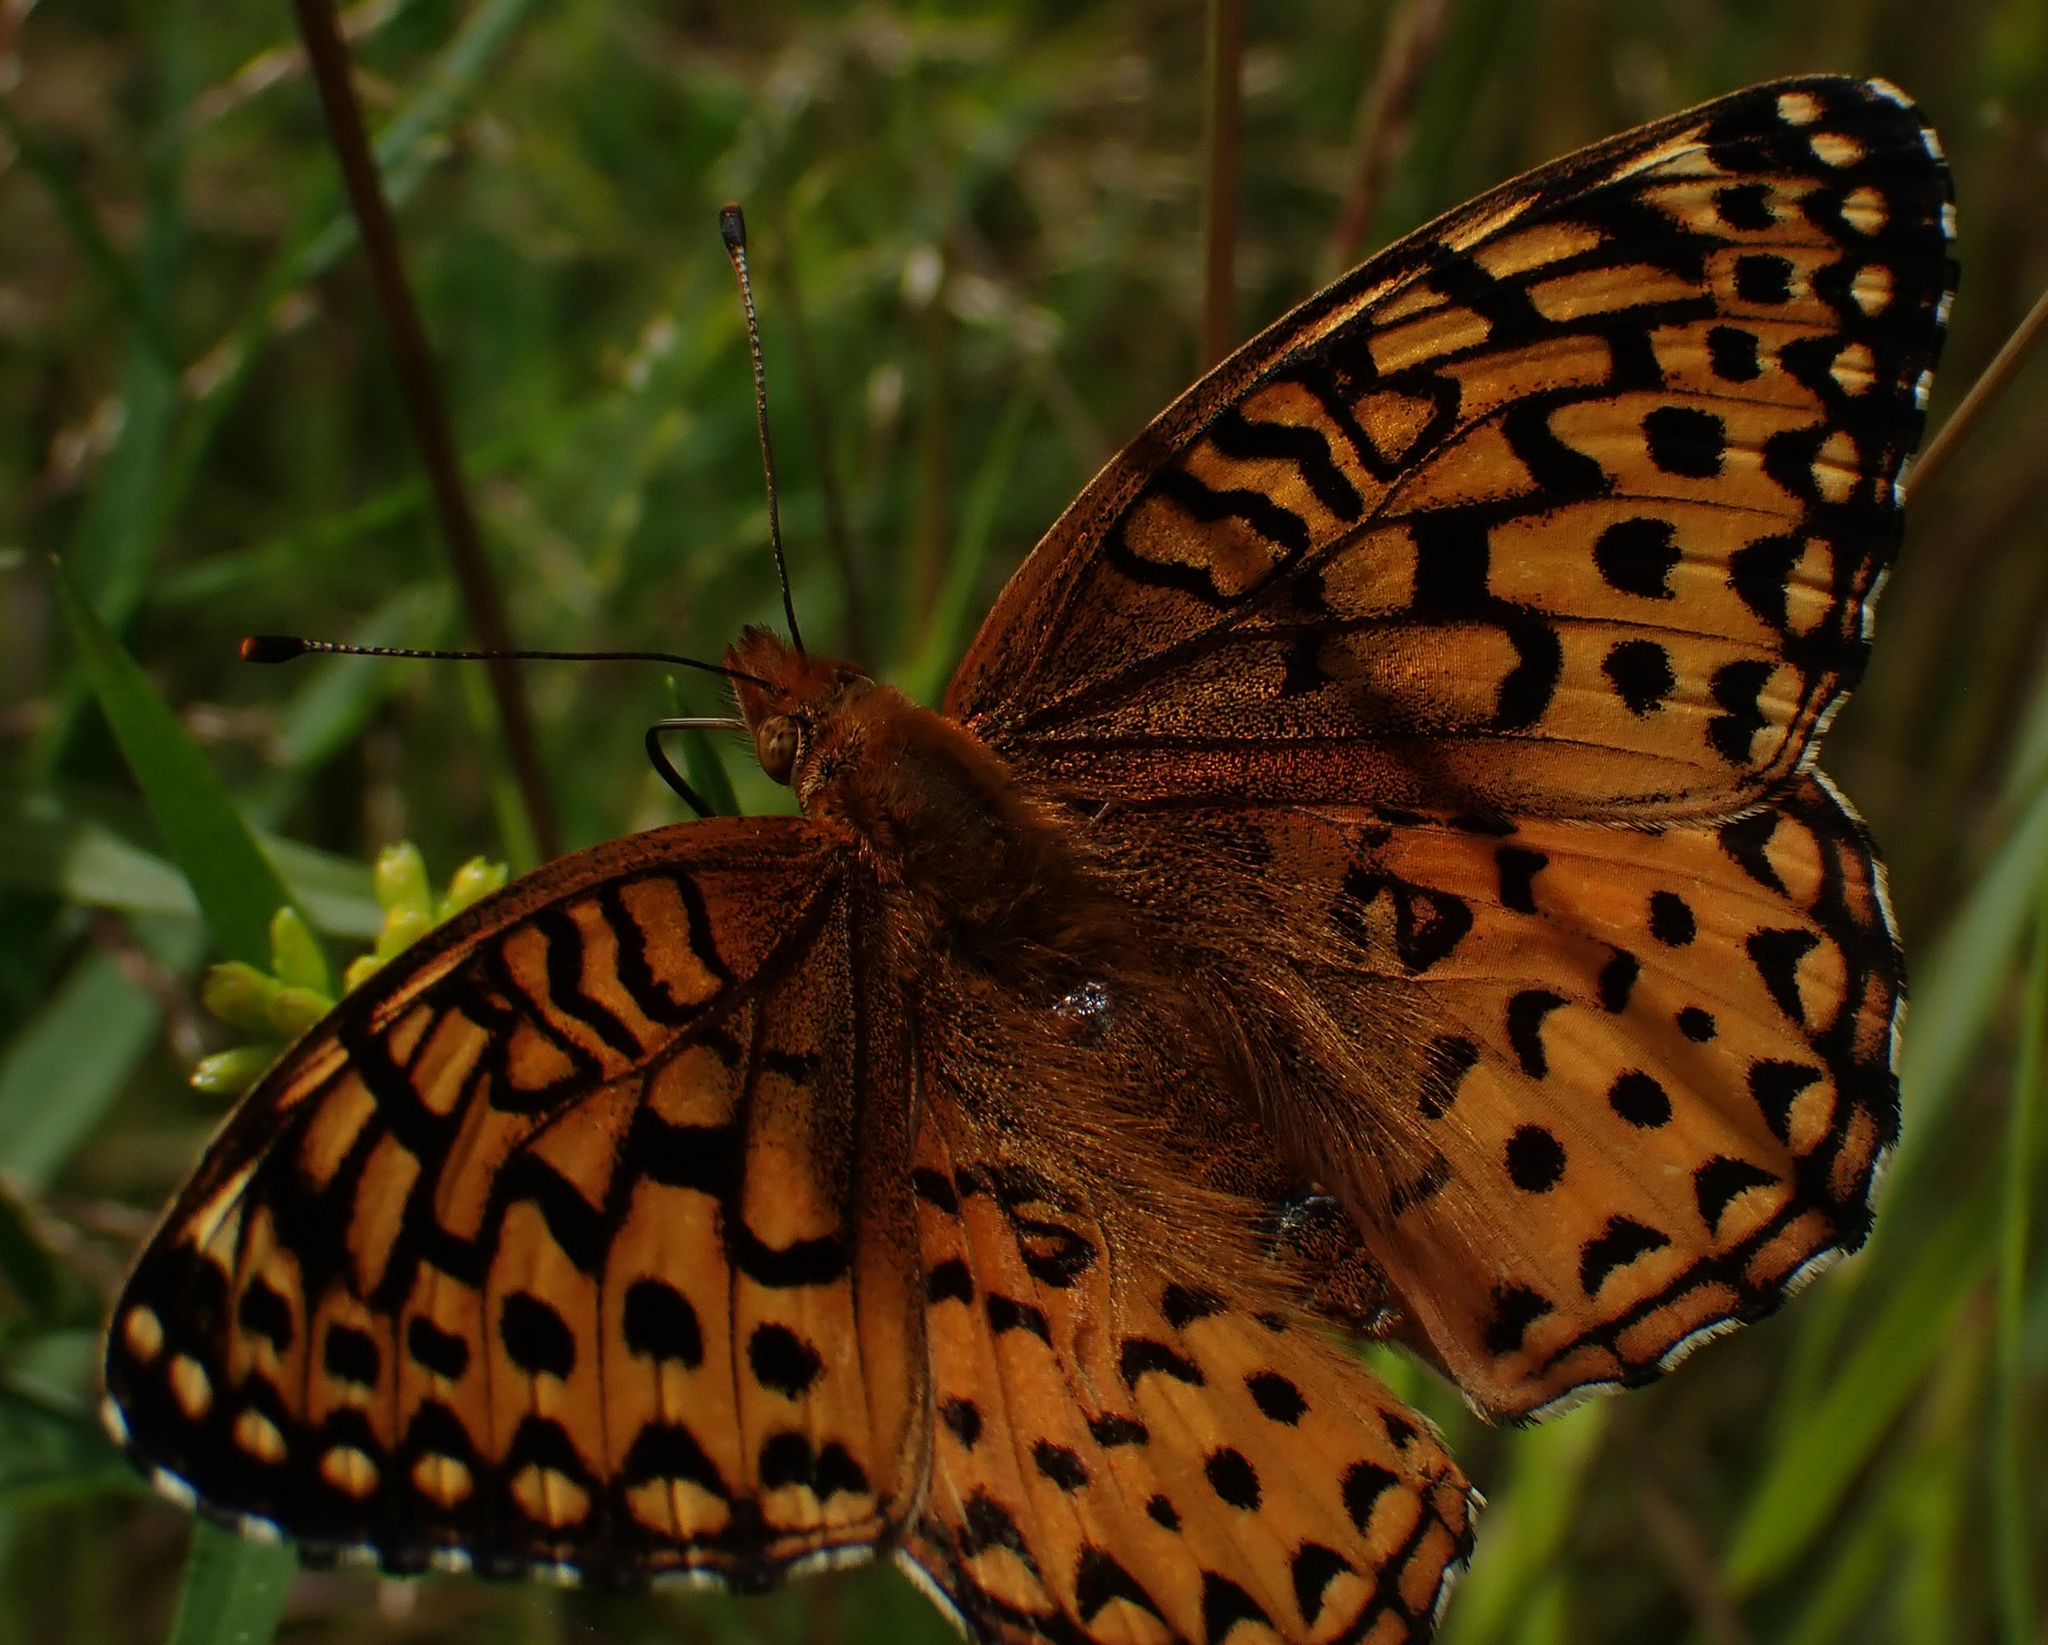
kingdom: Animalia
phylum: Arthropoda
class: Insecta
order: Lepidoptera
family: Nymphalidae
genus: Speyeria
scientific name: Speyeria aphrodite
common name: Aphrodite friitllary
